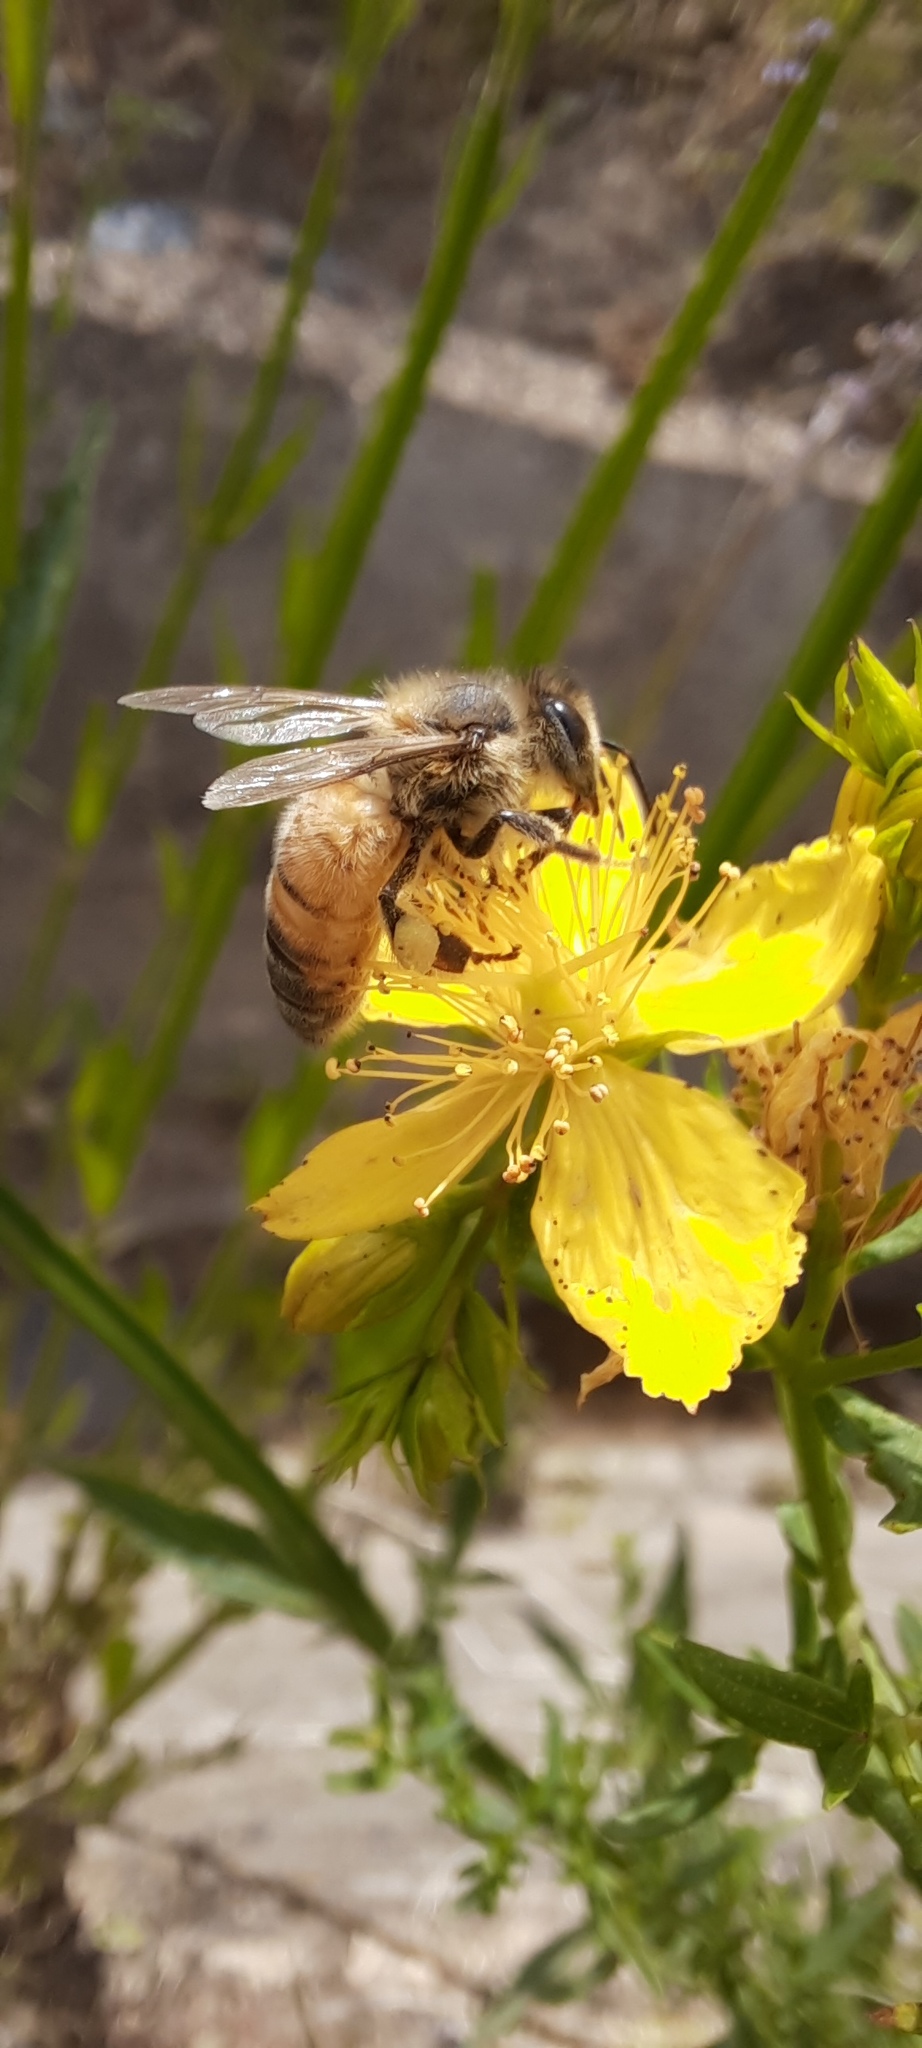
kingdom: Animalia
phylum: Arthropoda
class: Insecta
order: Hymenoptera
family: Apidae
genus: Apis
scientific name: Apis mellifera
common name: Honey bee
